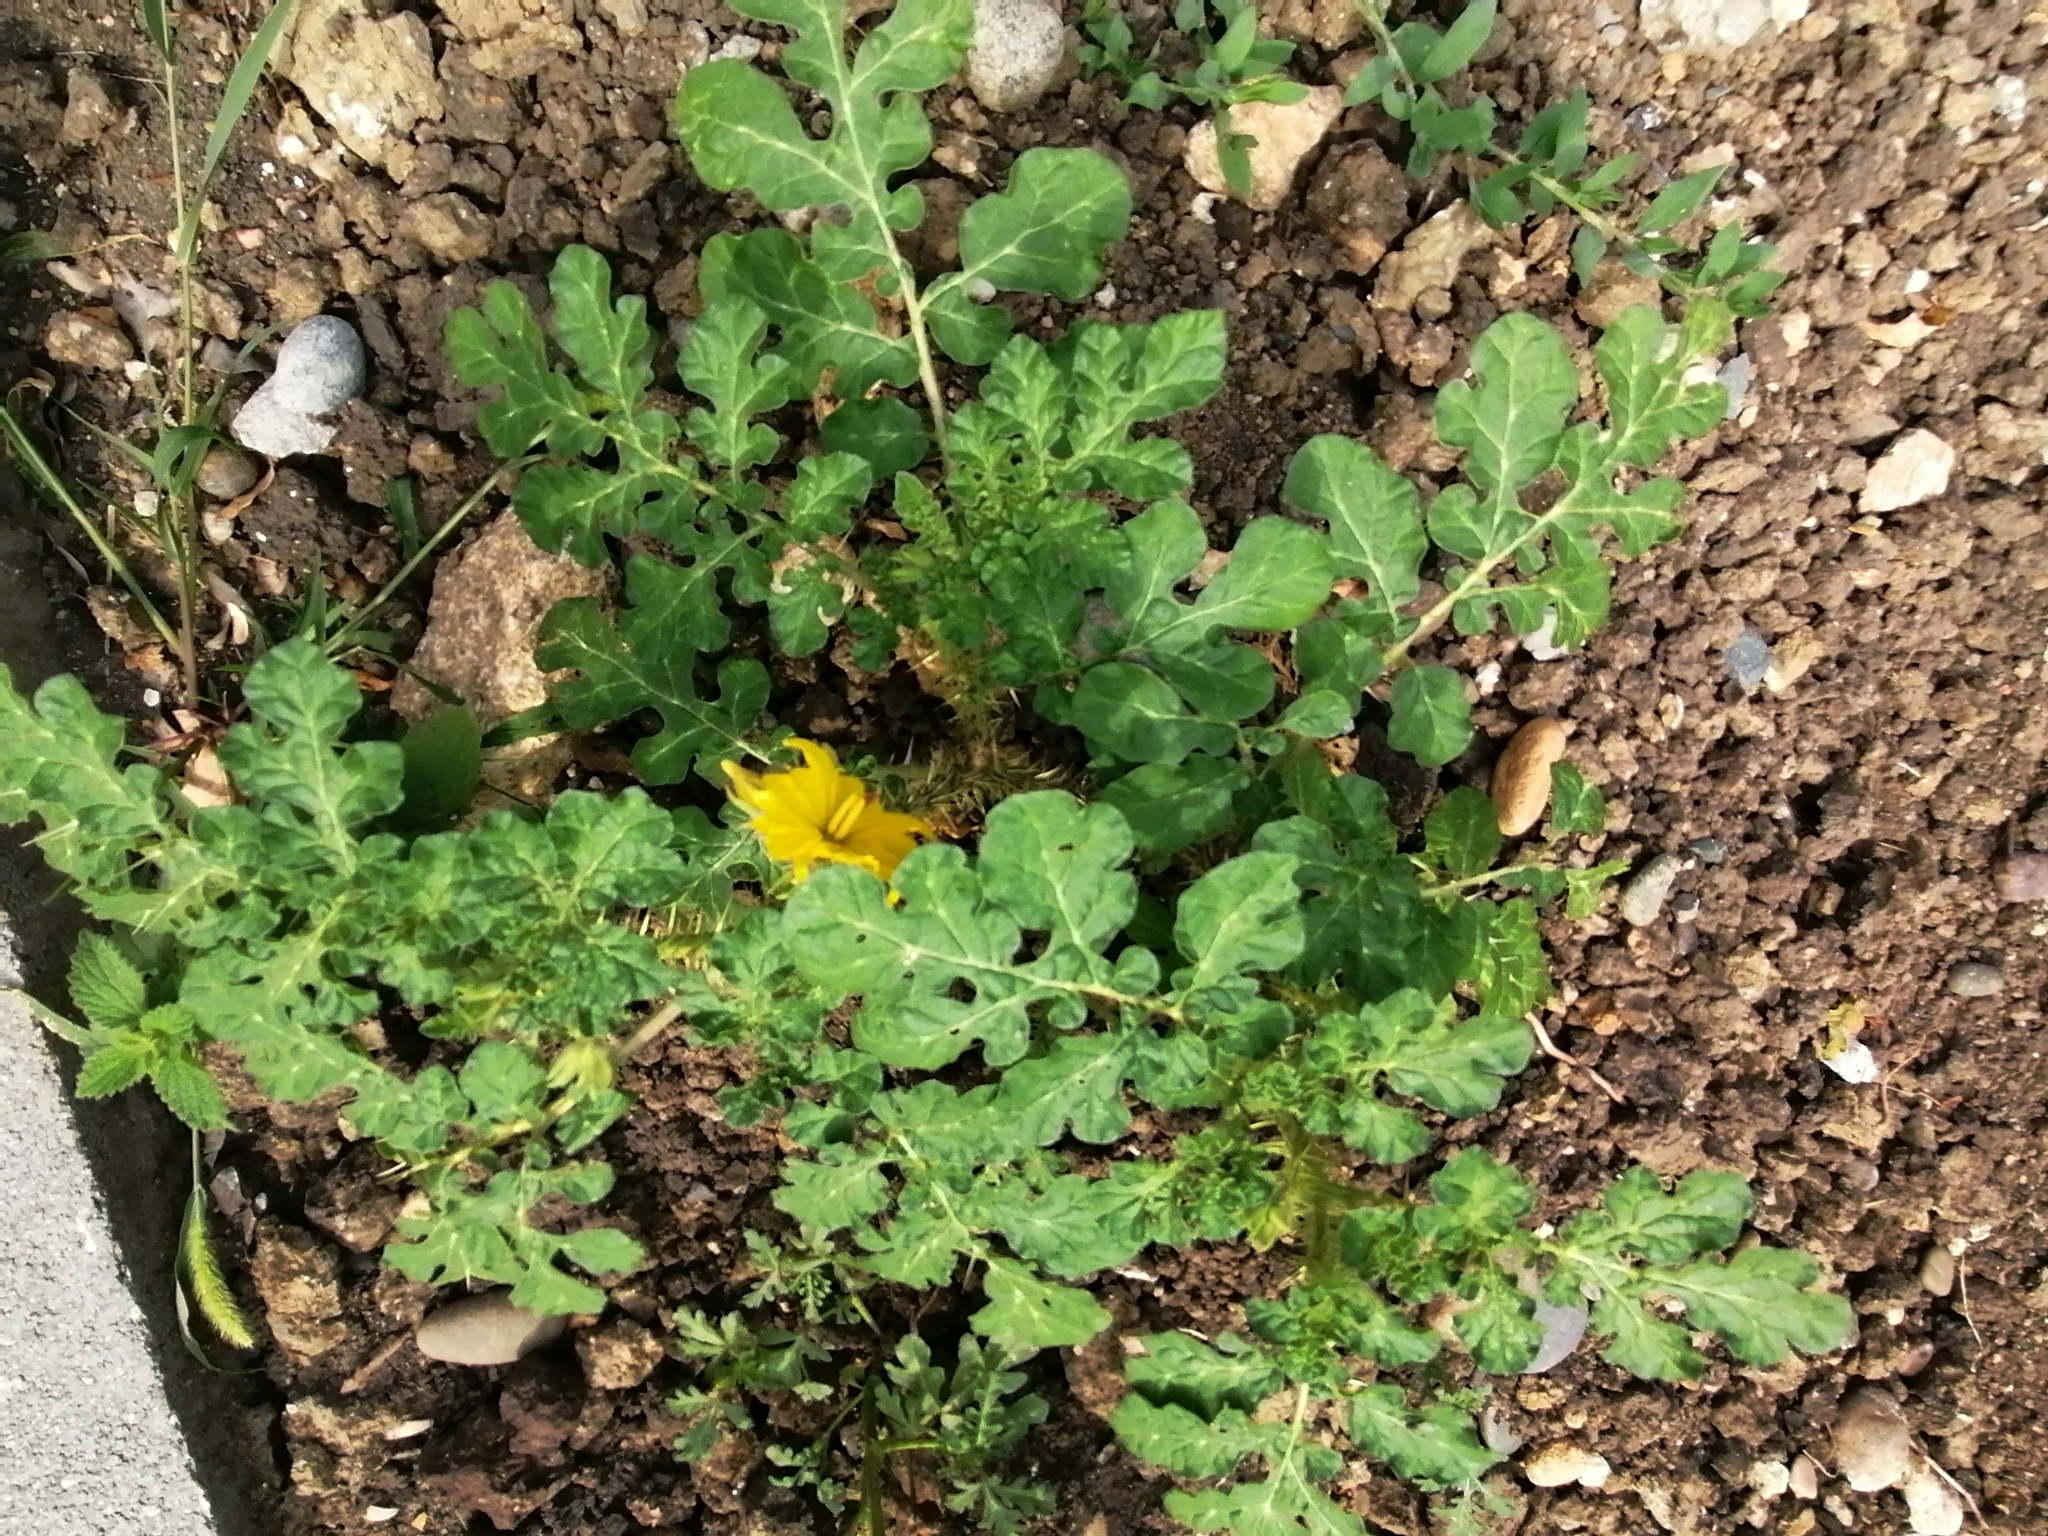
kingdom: Plantae
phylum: Tracheophyta
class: Magnoliopsida
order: Solanales
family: Solanaceae
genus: Solanum
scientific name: Solanum angustifolium
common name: Buffalobur nightshade
